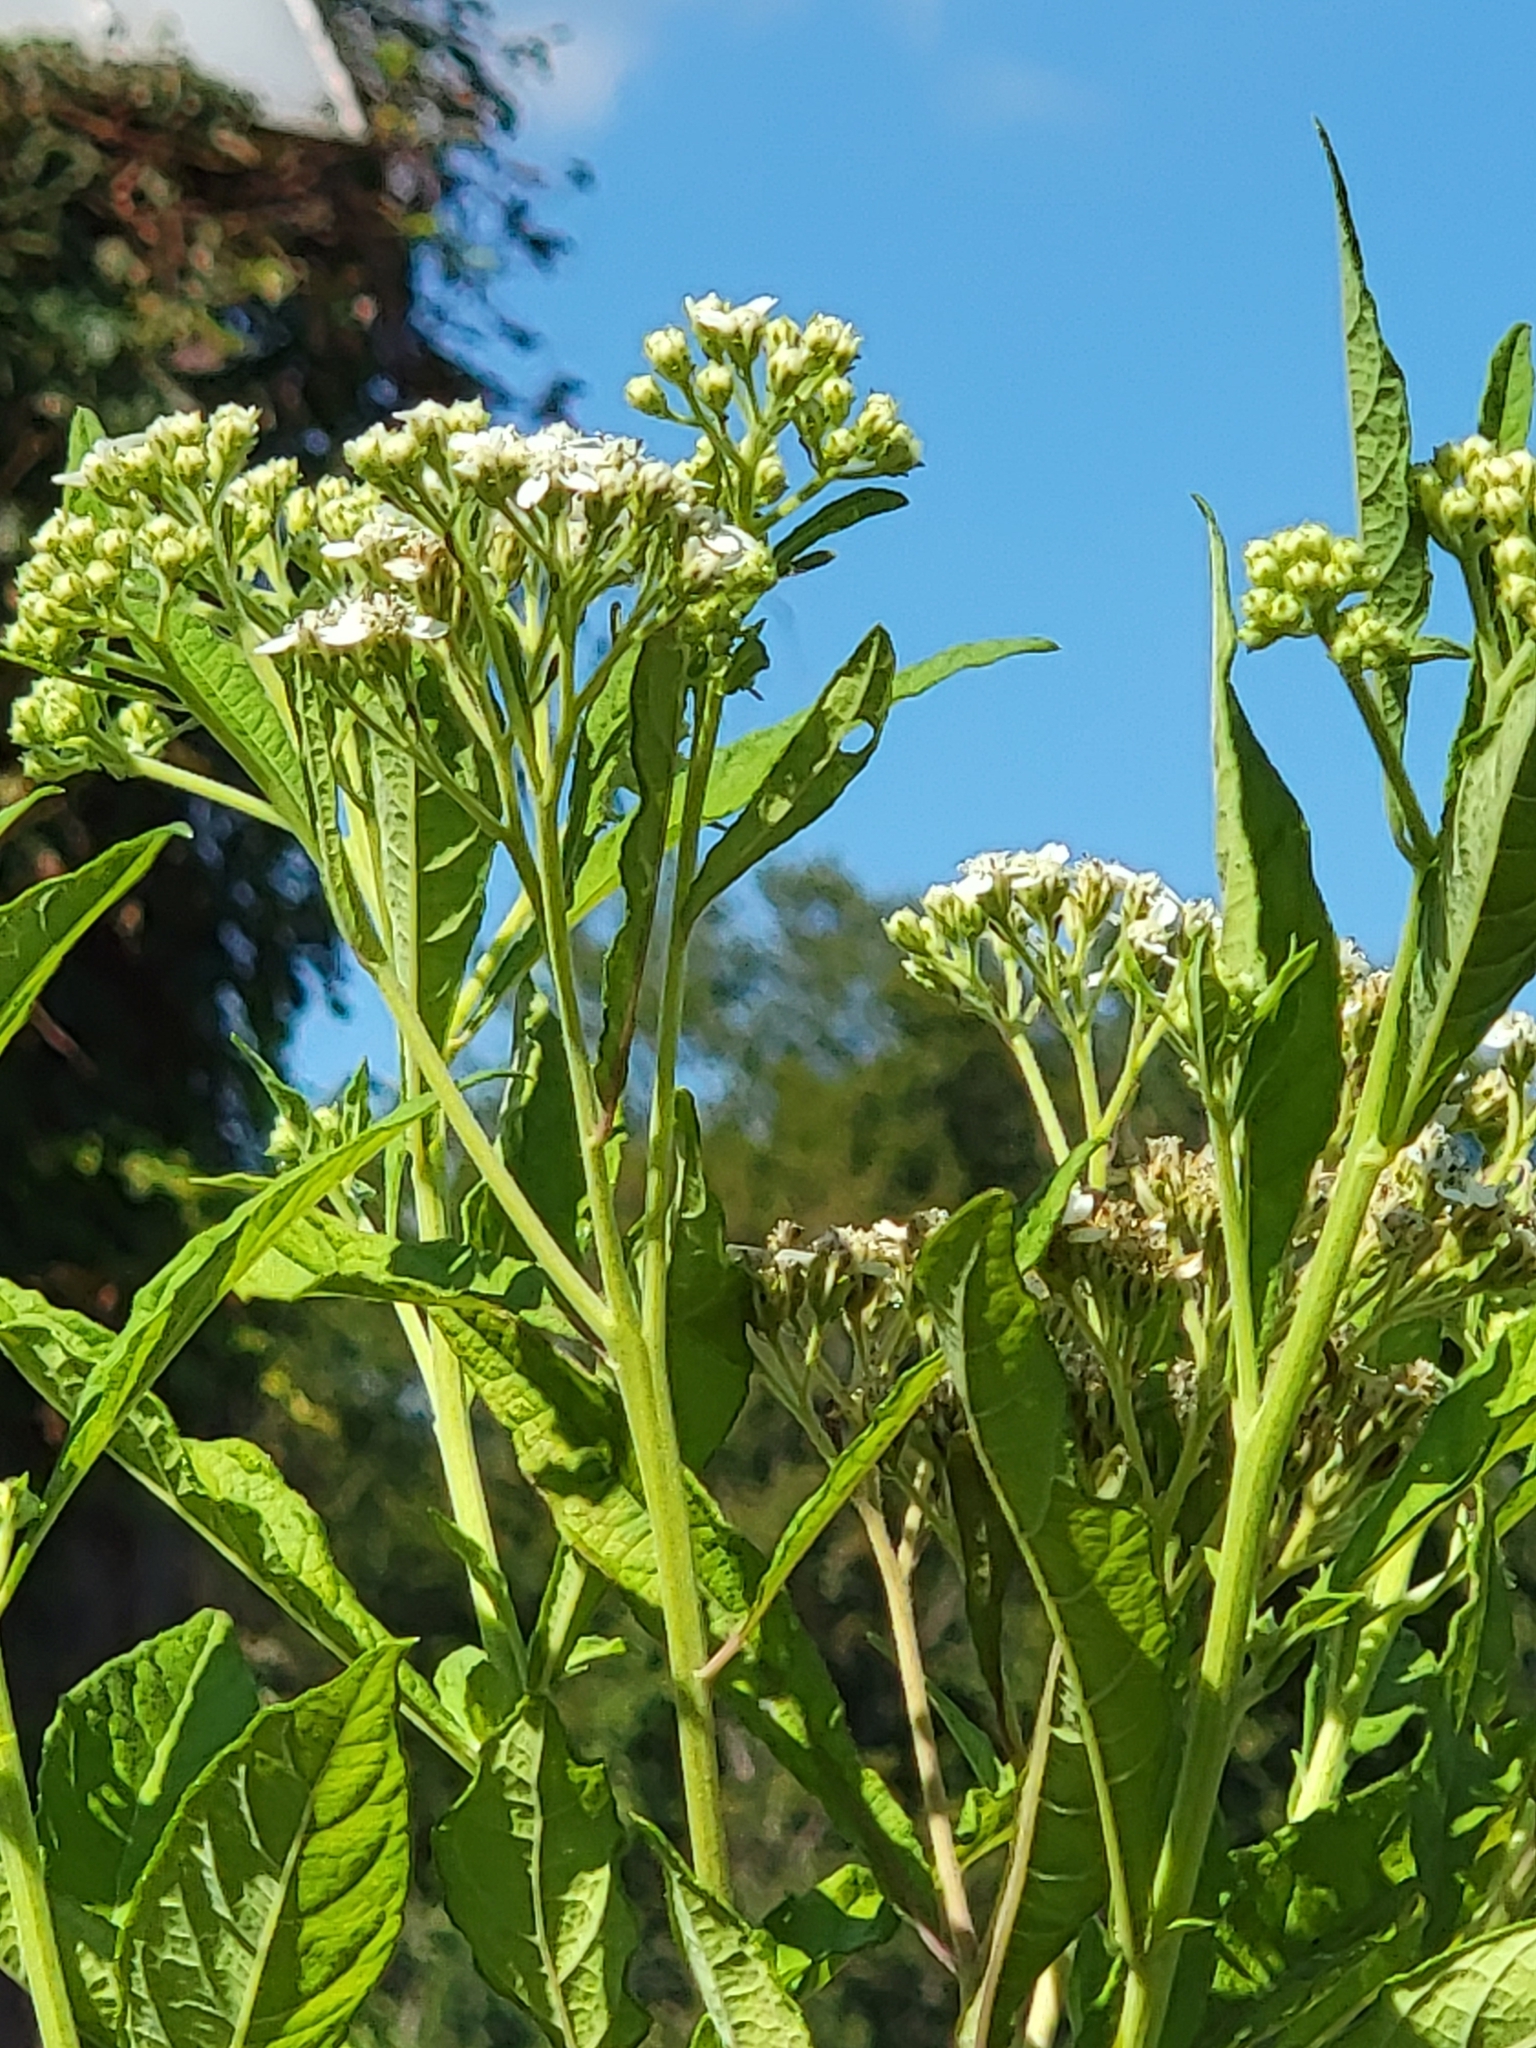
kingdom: Plantae
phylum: Tracheophyta
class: Magnoliopsida
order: Asterales
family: Asteraceae
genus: Verbesina
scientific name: Verbesina virginica
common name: Frostweed
